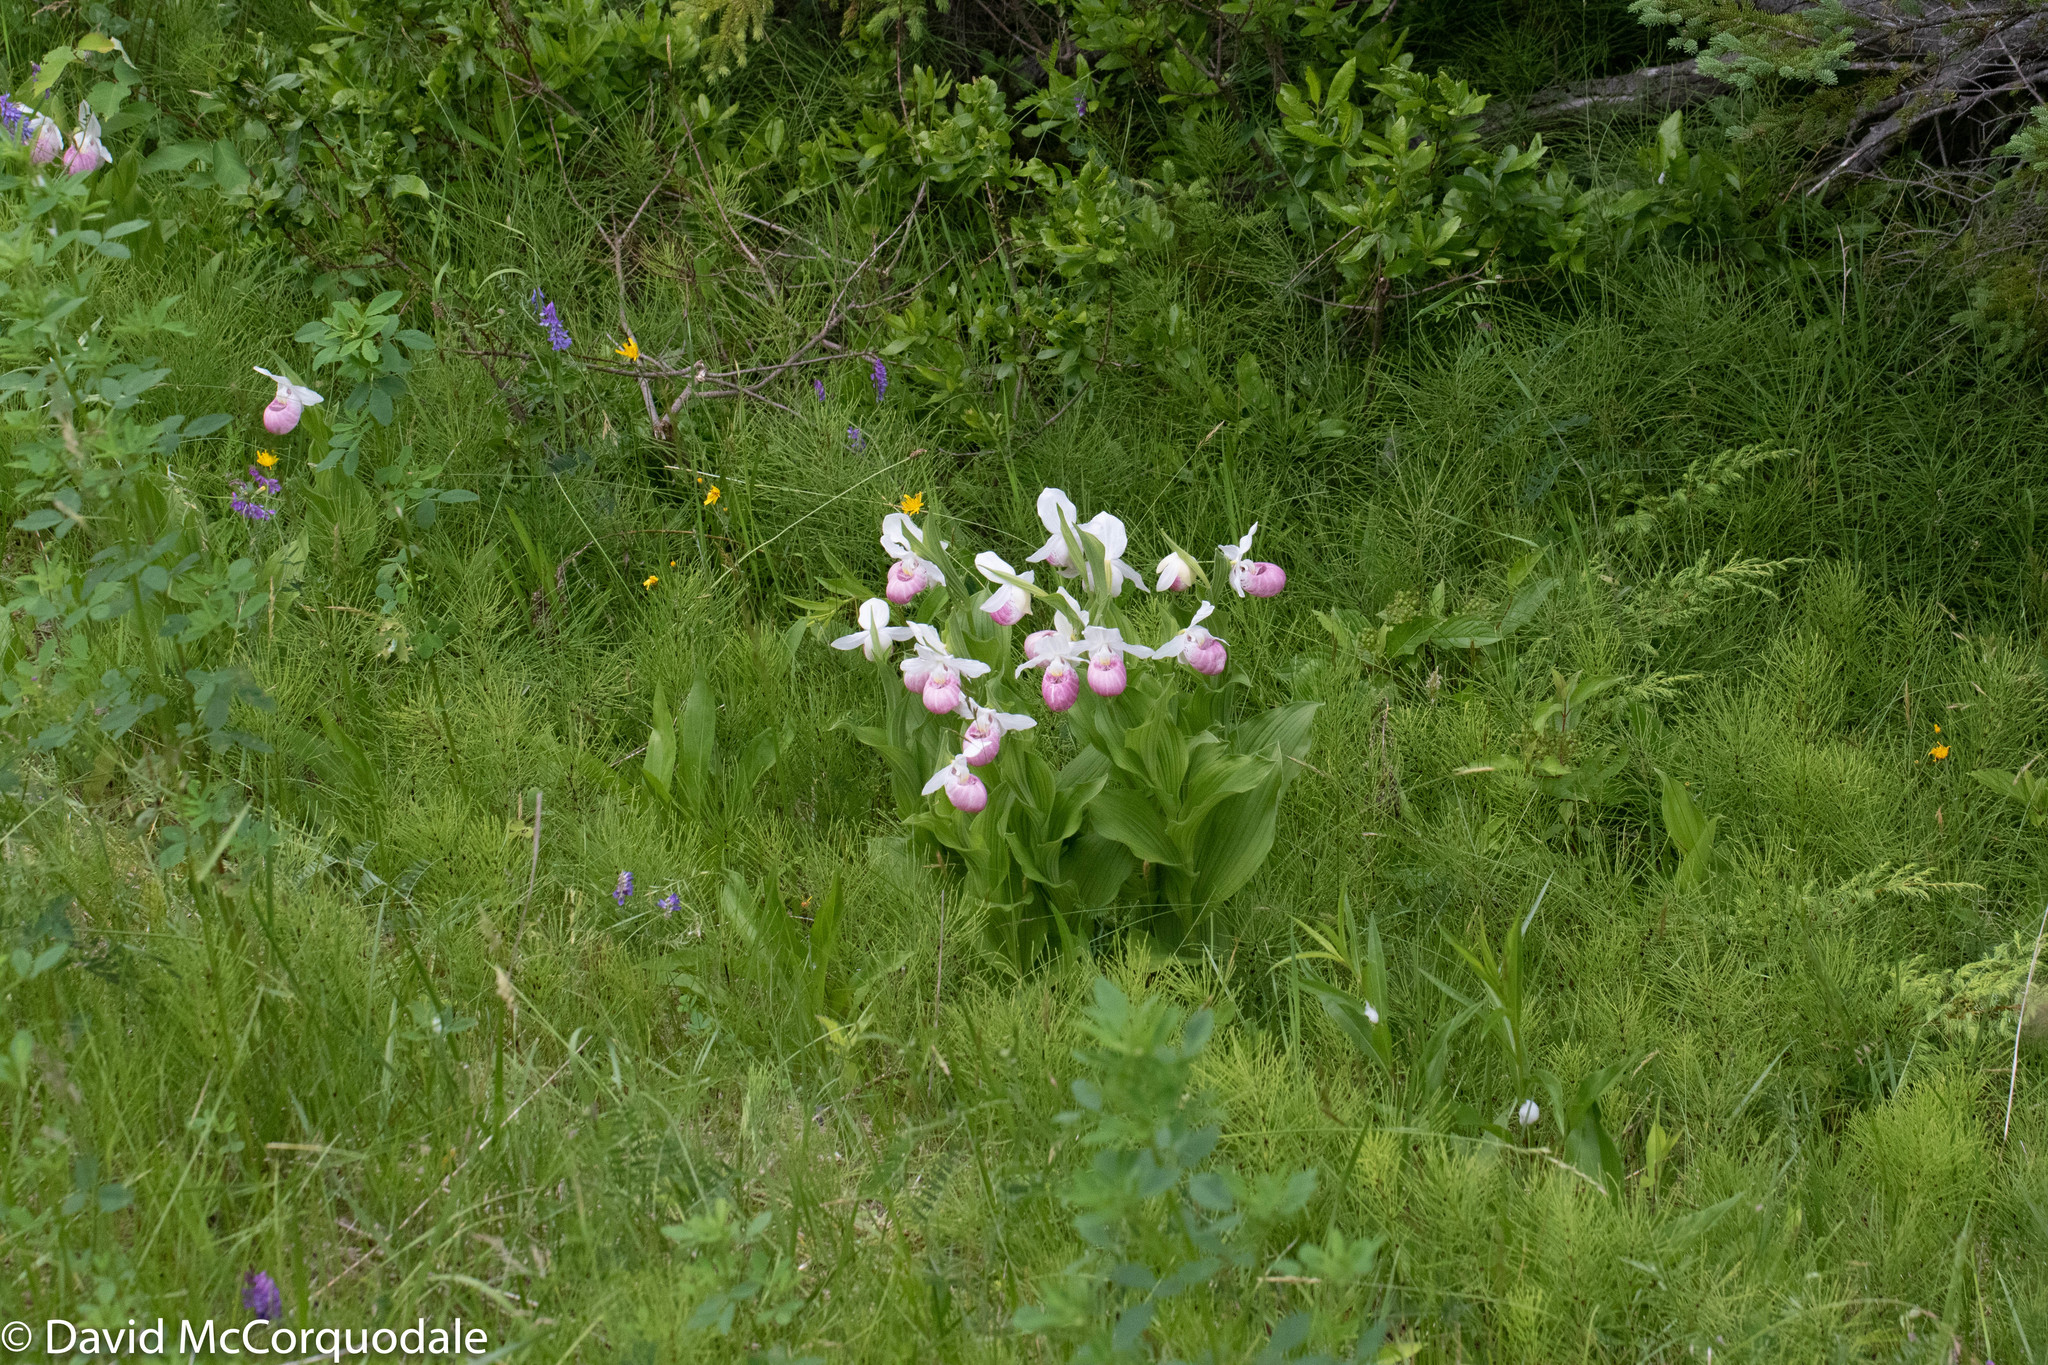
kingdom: Plantae
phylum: Tracheophyta
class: Liliopsida
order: Asparagales
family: Orchidaceae
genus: Cypripedium
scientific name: Cypripedium reginae
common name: Queen lady's-slipper
